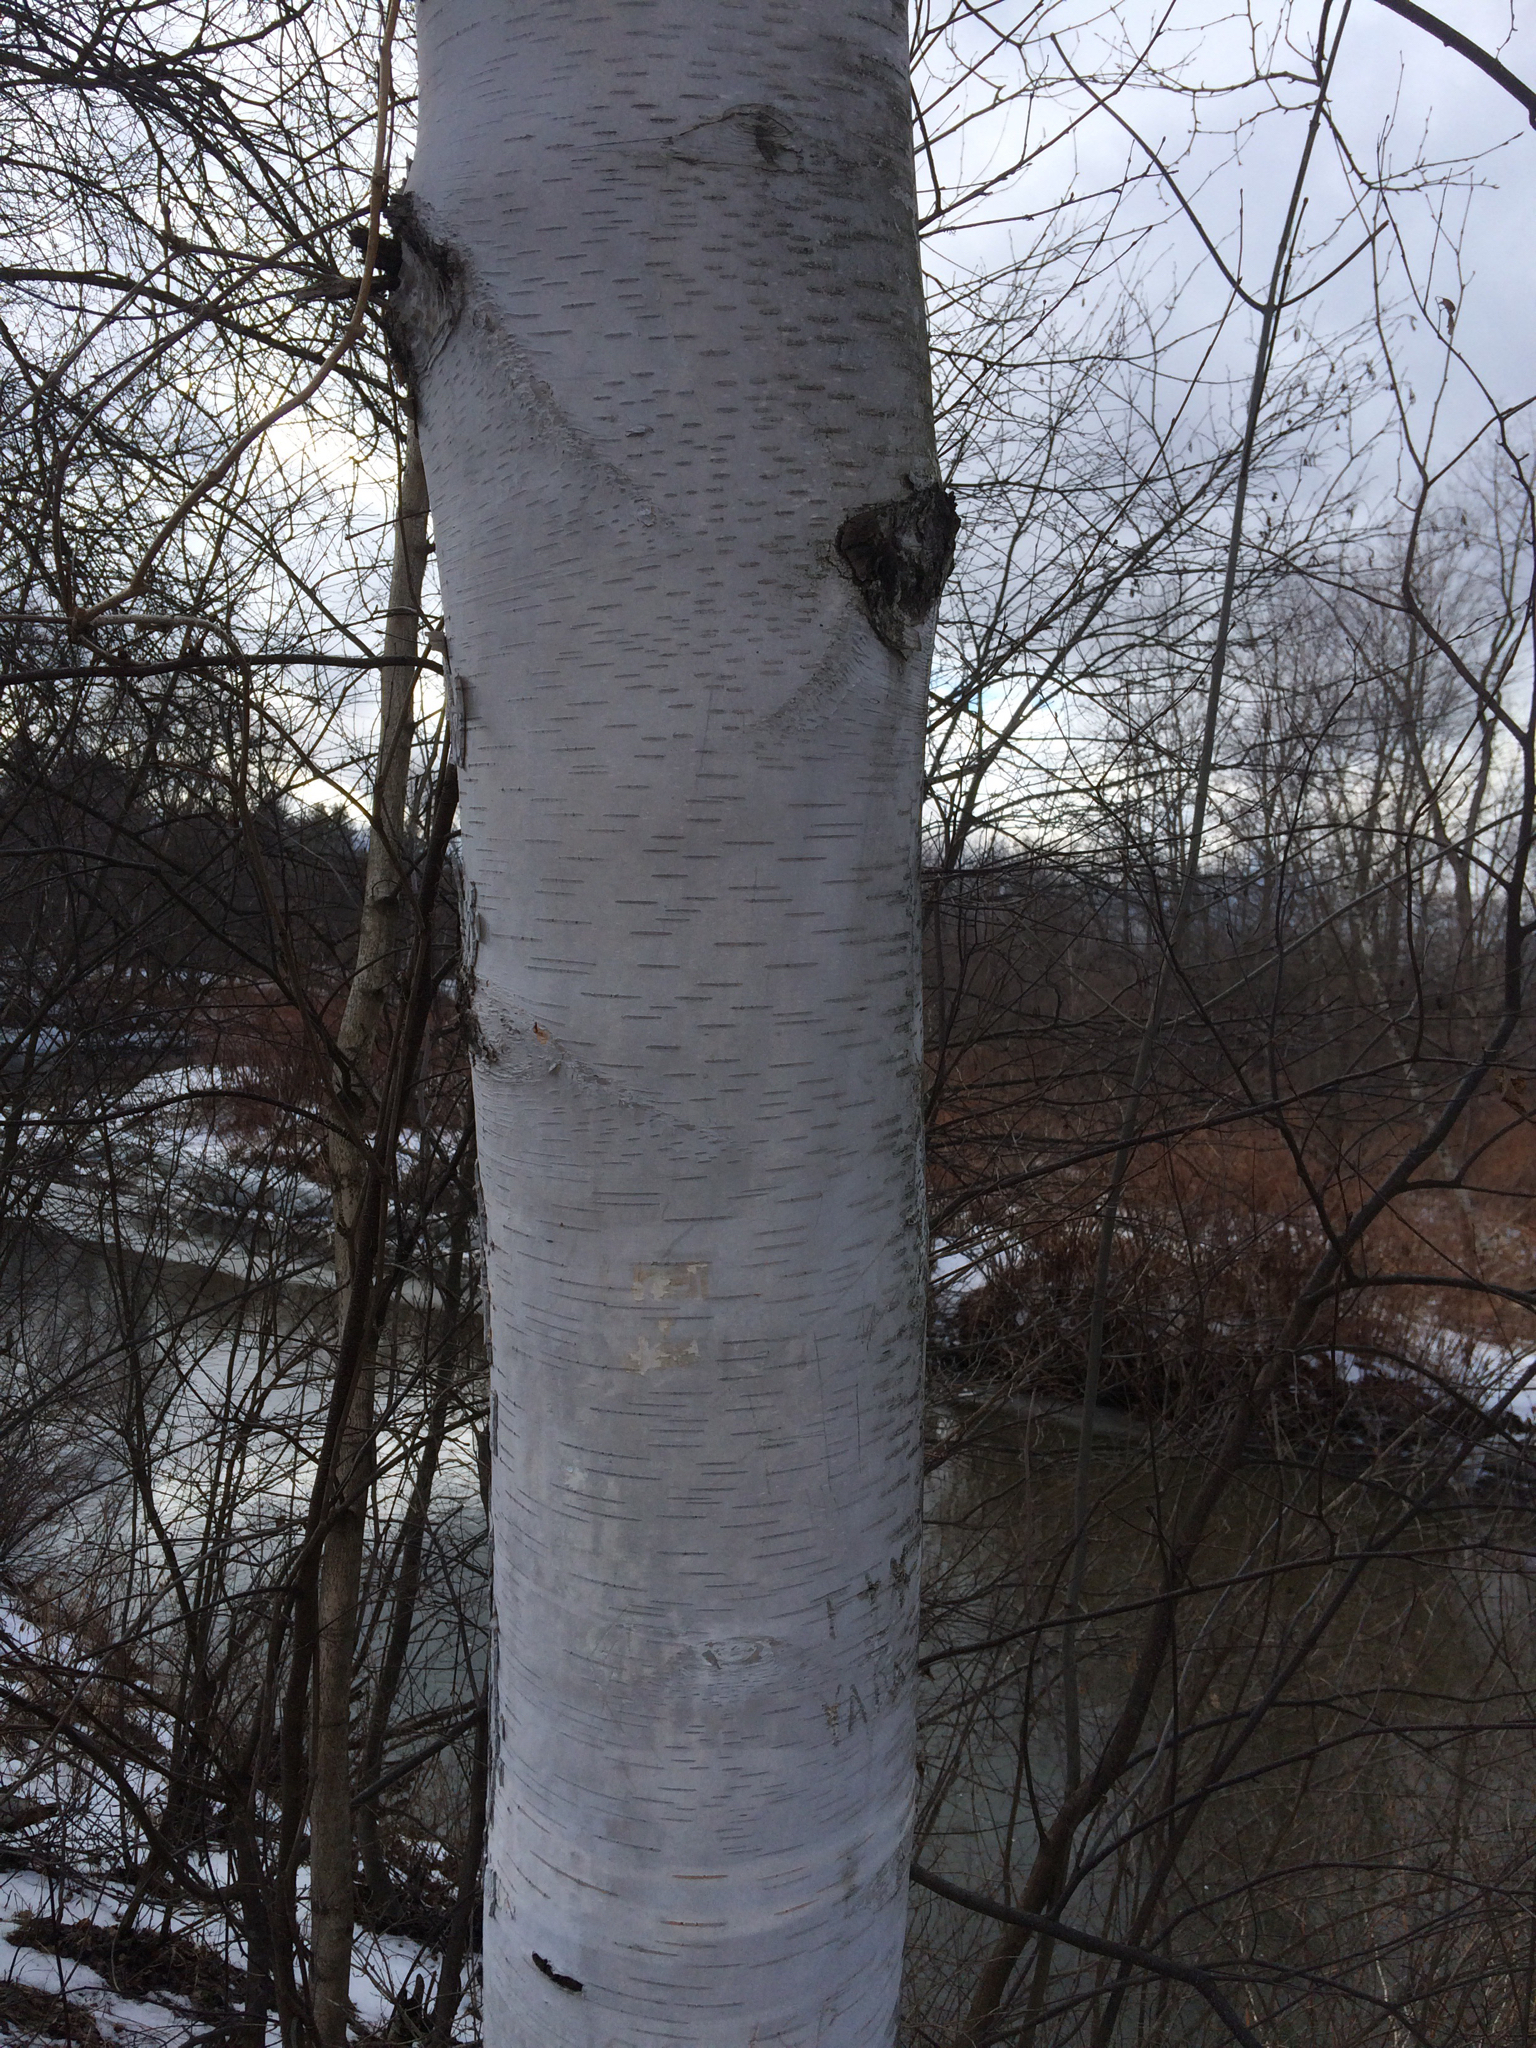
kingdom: Plantae
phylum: Tracheophyta
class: Magnoliopsida
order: Fagales
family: Betulaceae
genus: Betula
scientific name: Betula papyrifera
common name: Paper birch
